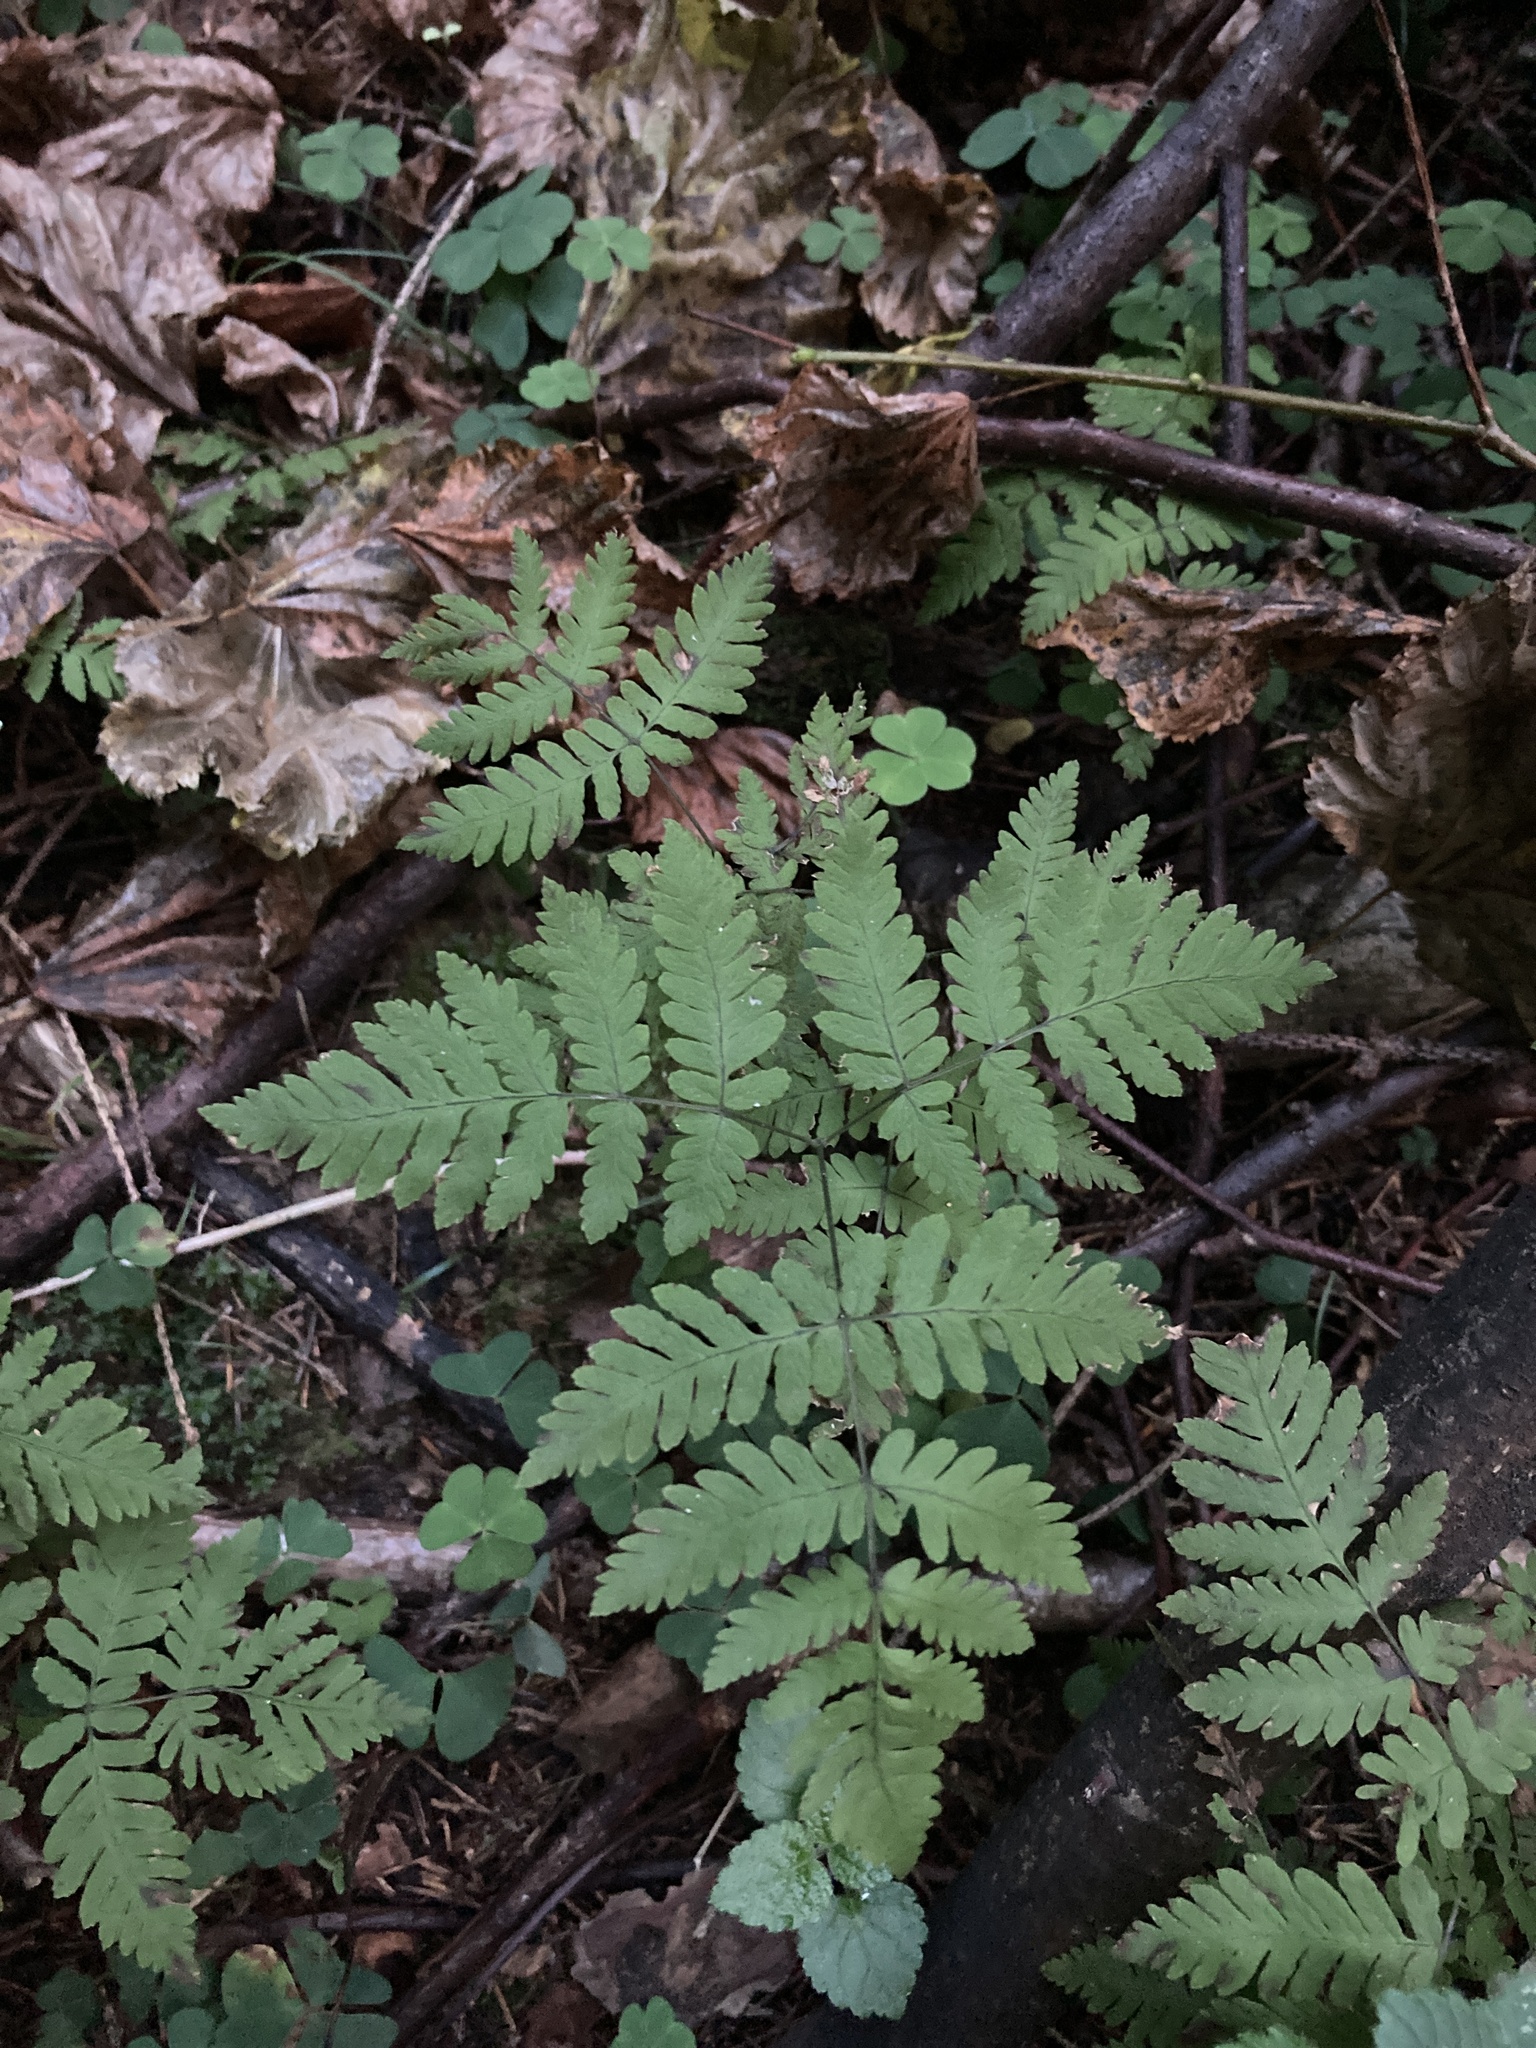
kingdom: Plantae
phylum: Tracheophyta
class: Polypodiopsida
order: Polypodiales
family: Cystopteridaceae
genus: Gymnocarpium
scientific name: Gymnocarpium dryopteris
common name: Oak fern
